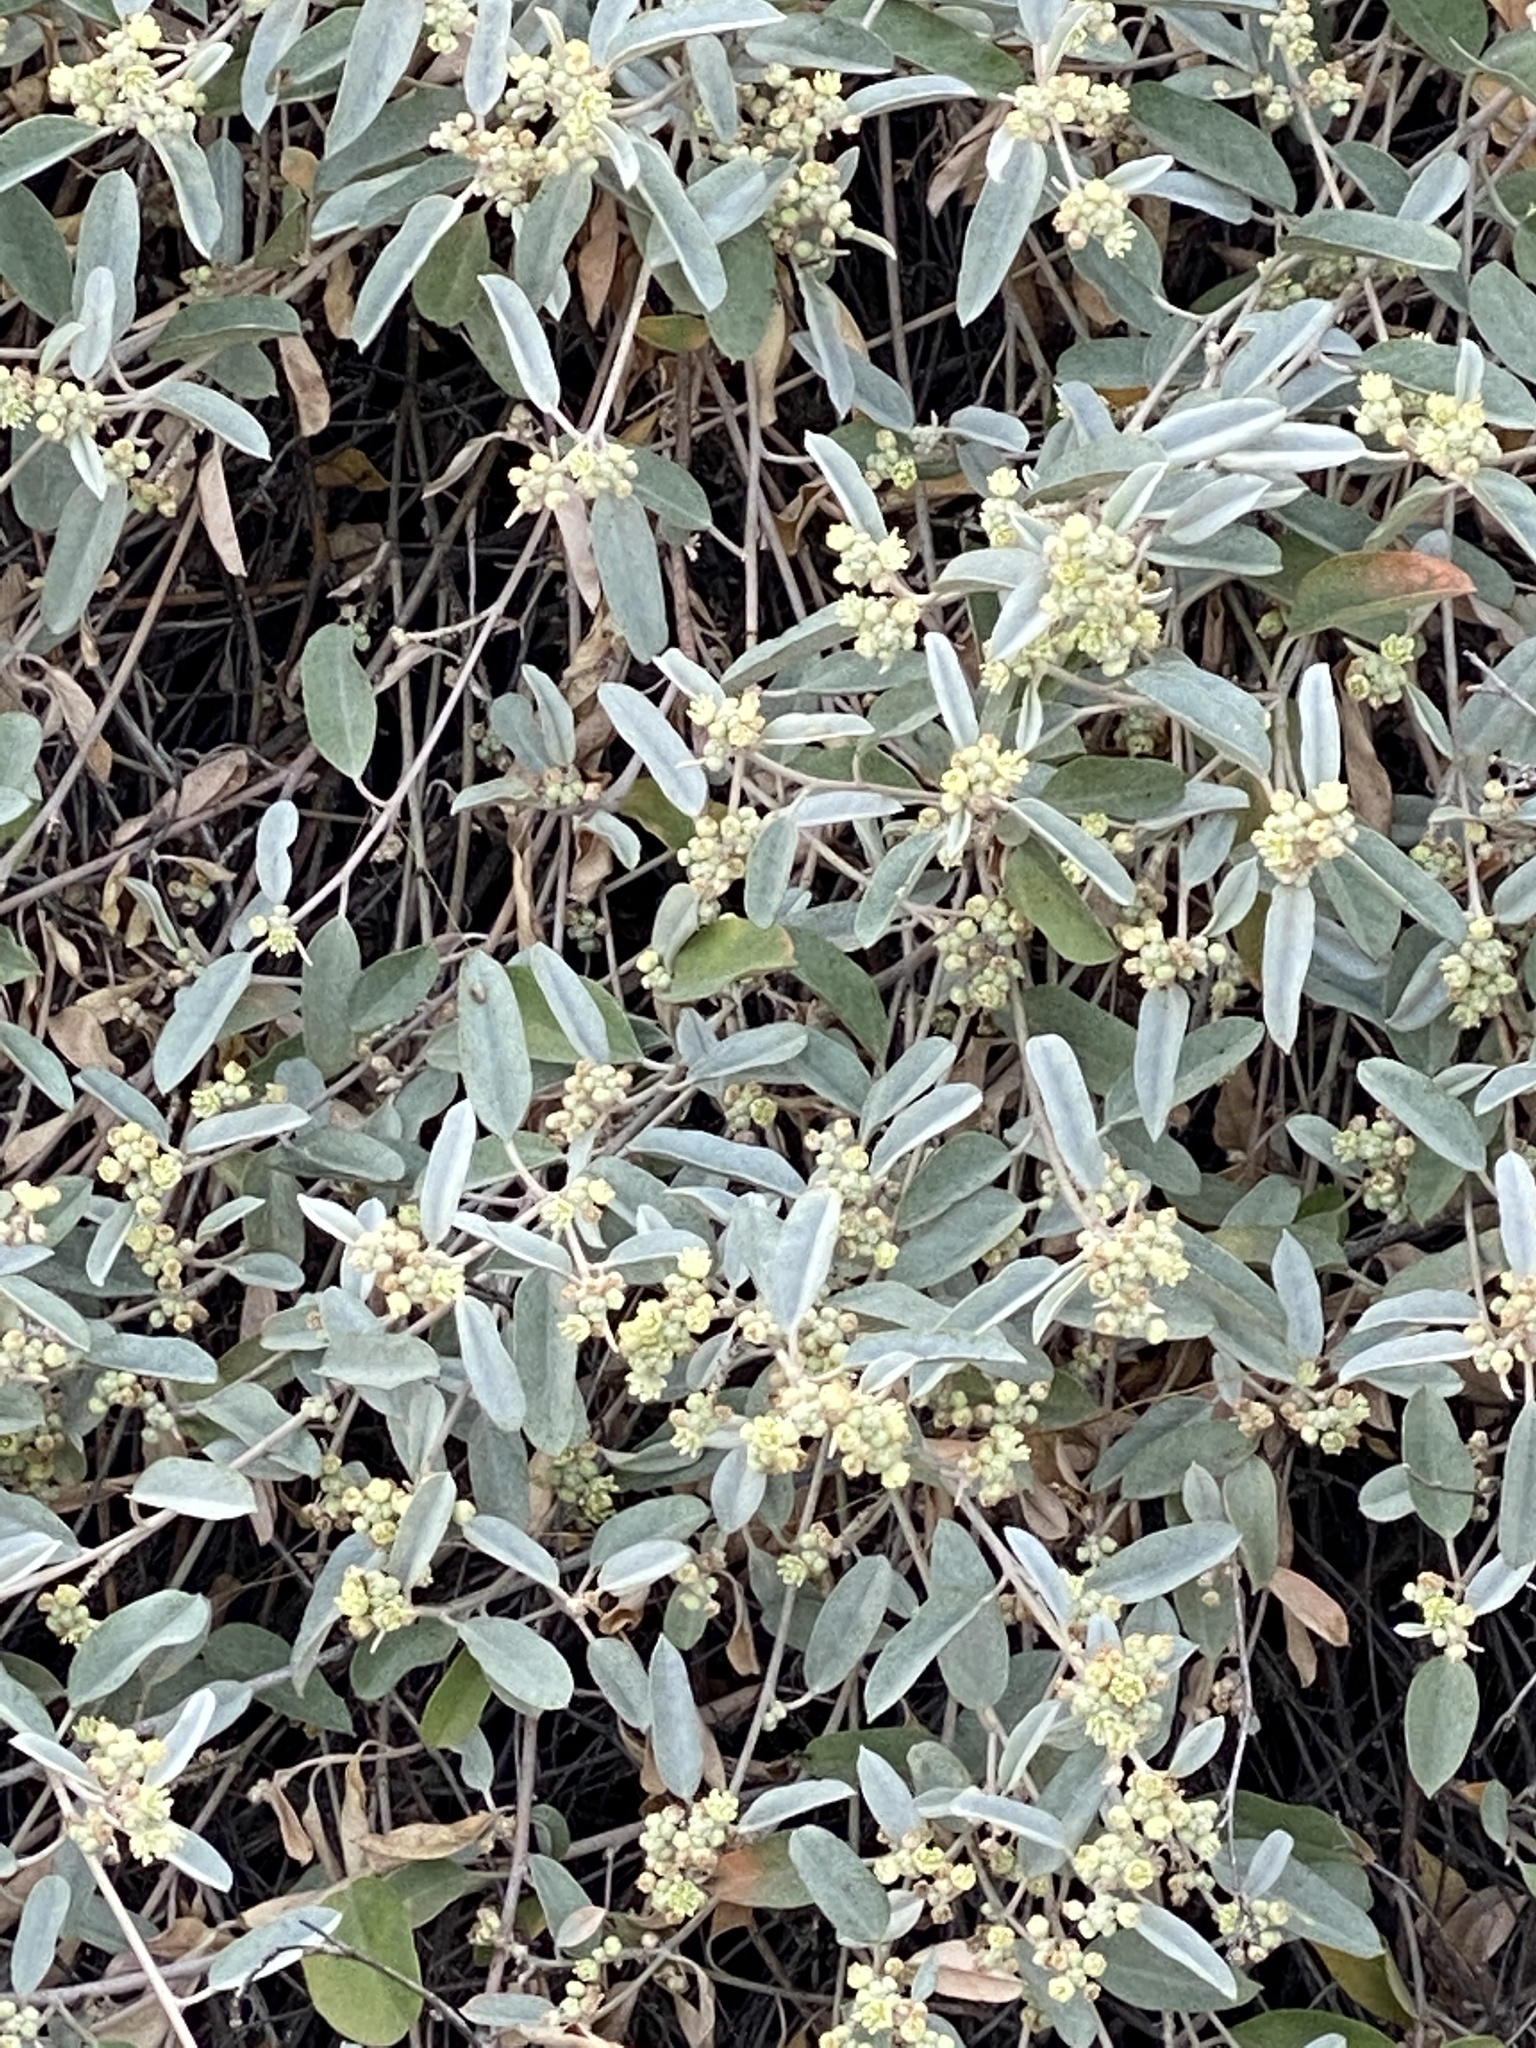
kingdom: Plantae
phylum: Tracheophyta
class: Magnoliopsida
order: Malpighiales
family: Euphorbiaceae
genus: Croton
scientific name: Croton californicus
